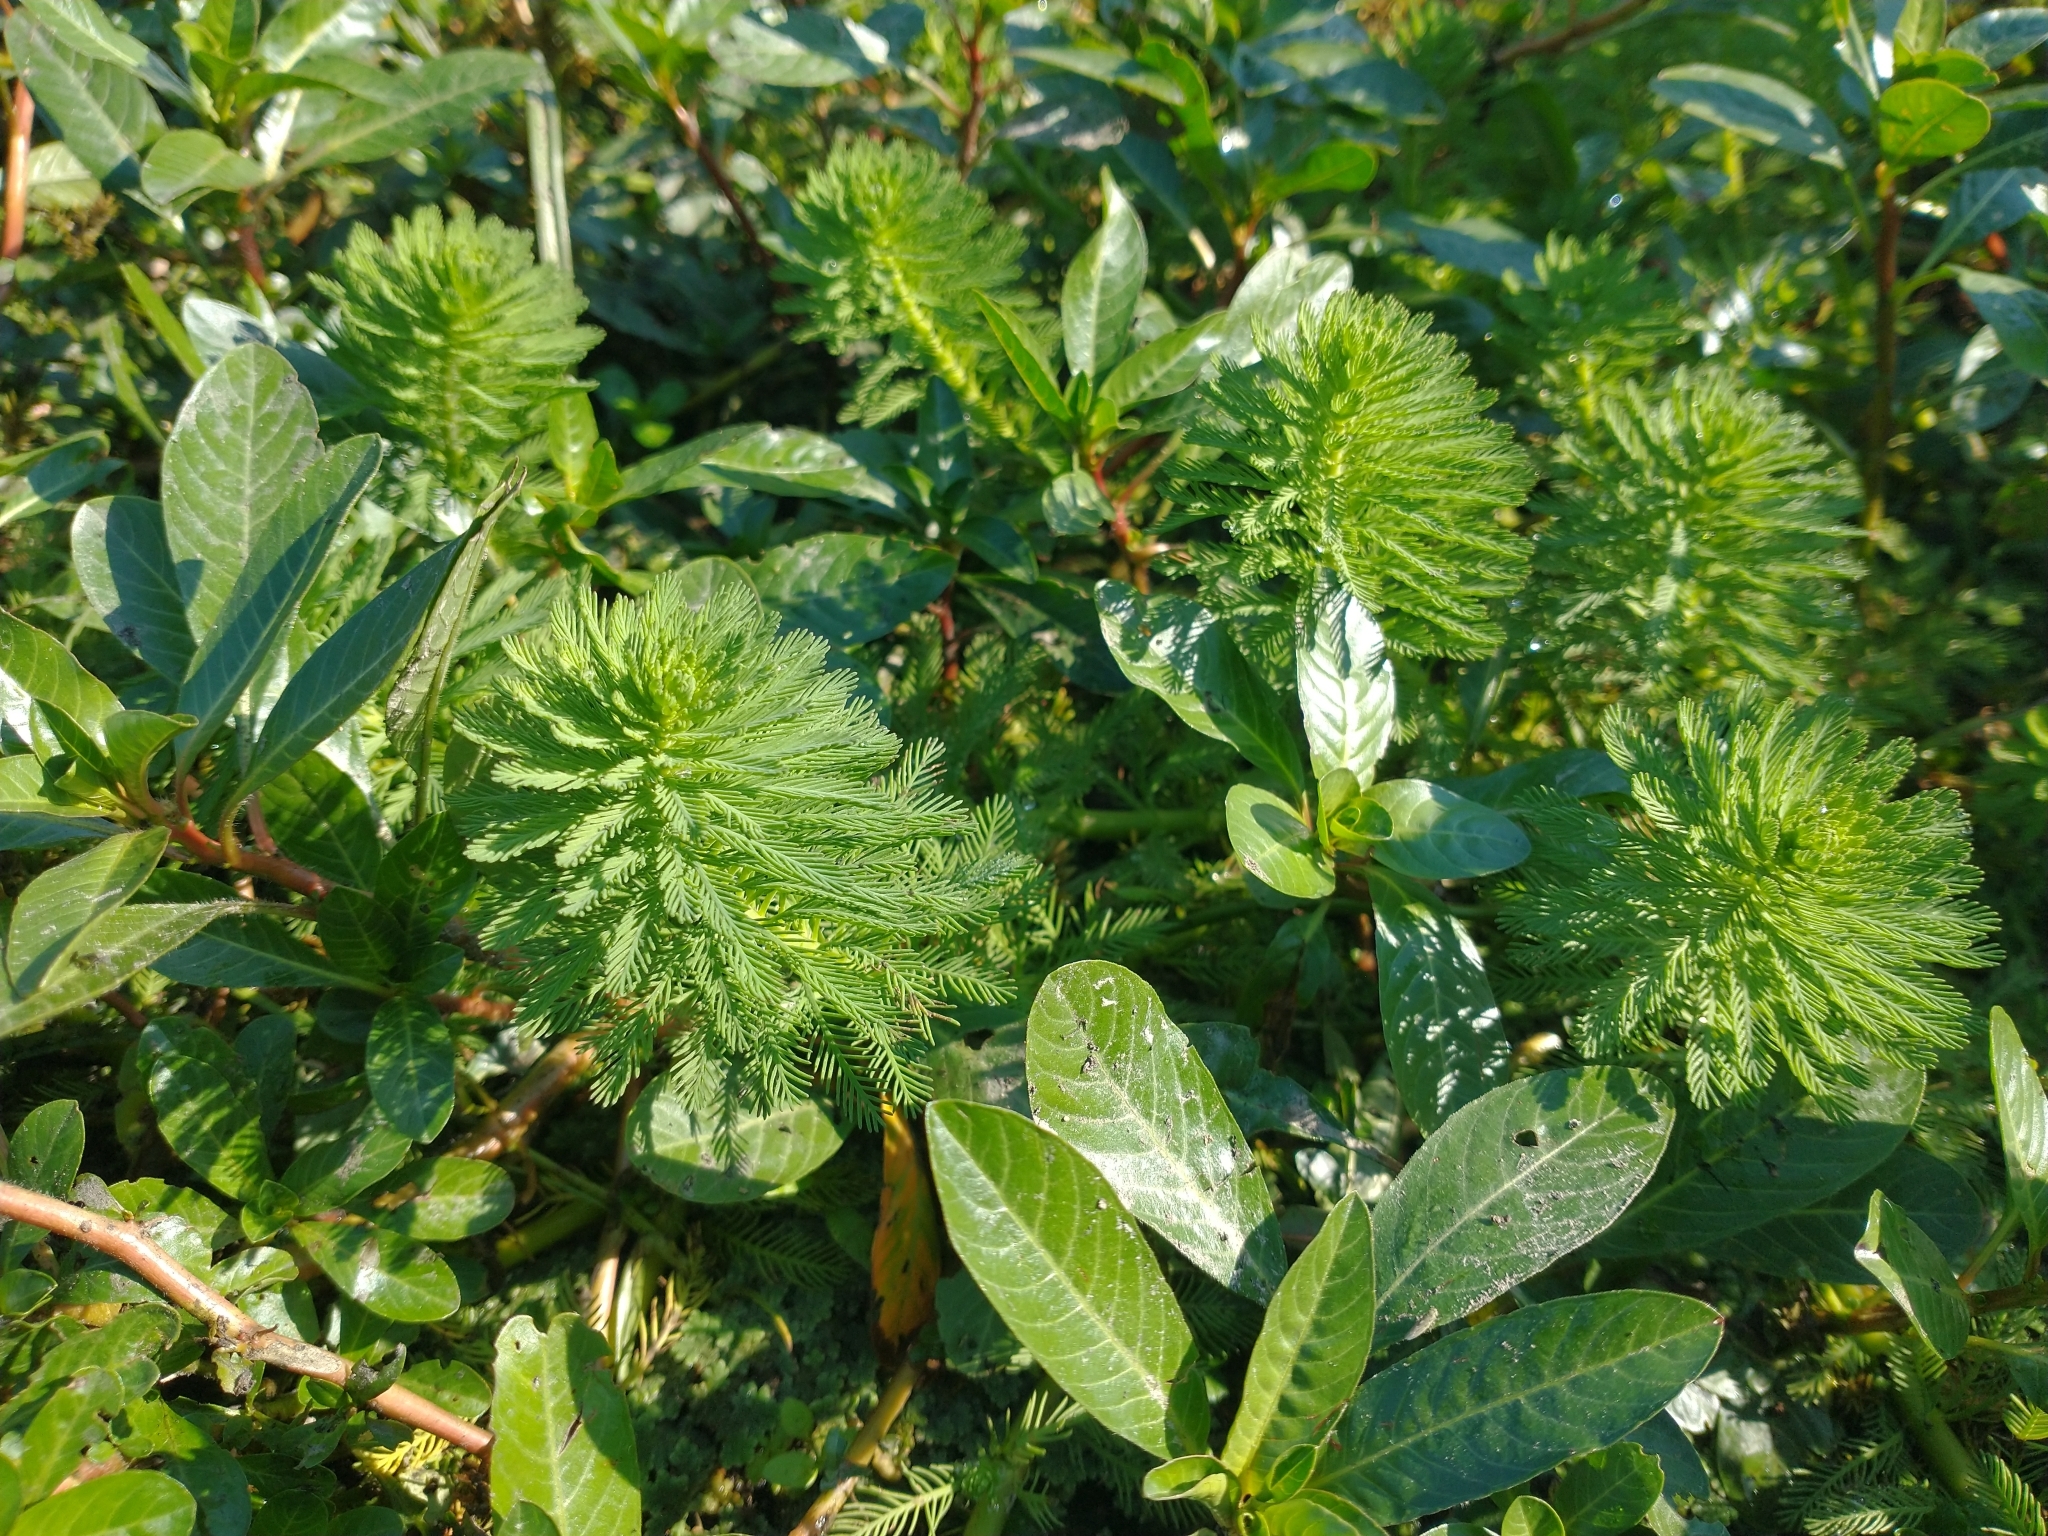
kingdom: Plantae
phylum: Tracheophyta
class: Magnoliopsida
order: Saxifragales
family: Haloragaceae
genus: Myriophyllum
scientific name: Myriophyllum aquaticum
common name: Parrot's feather
